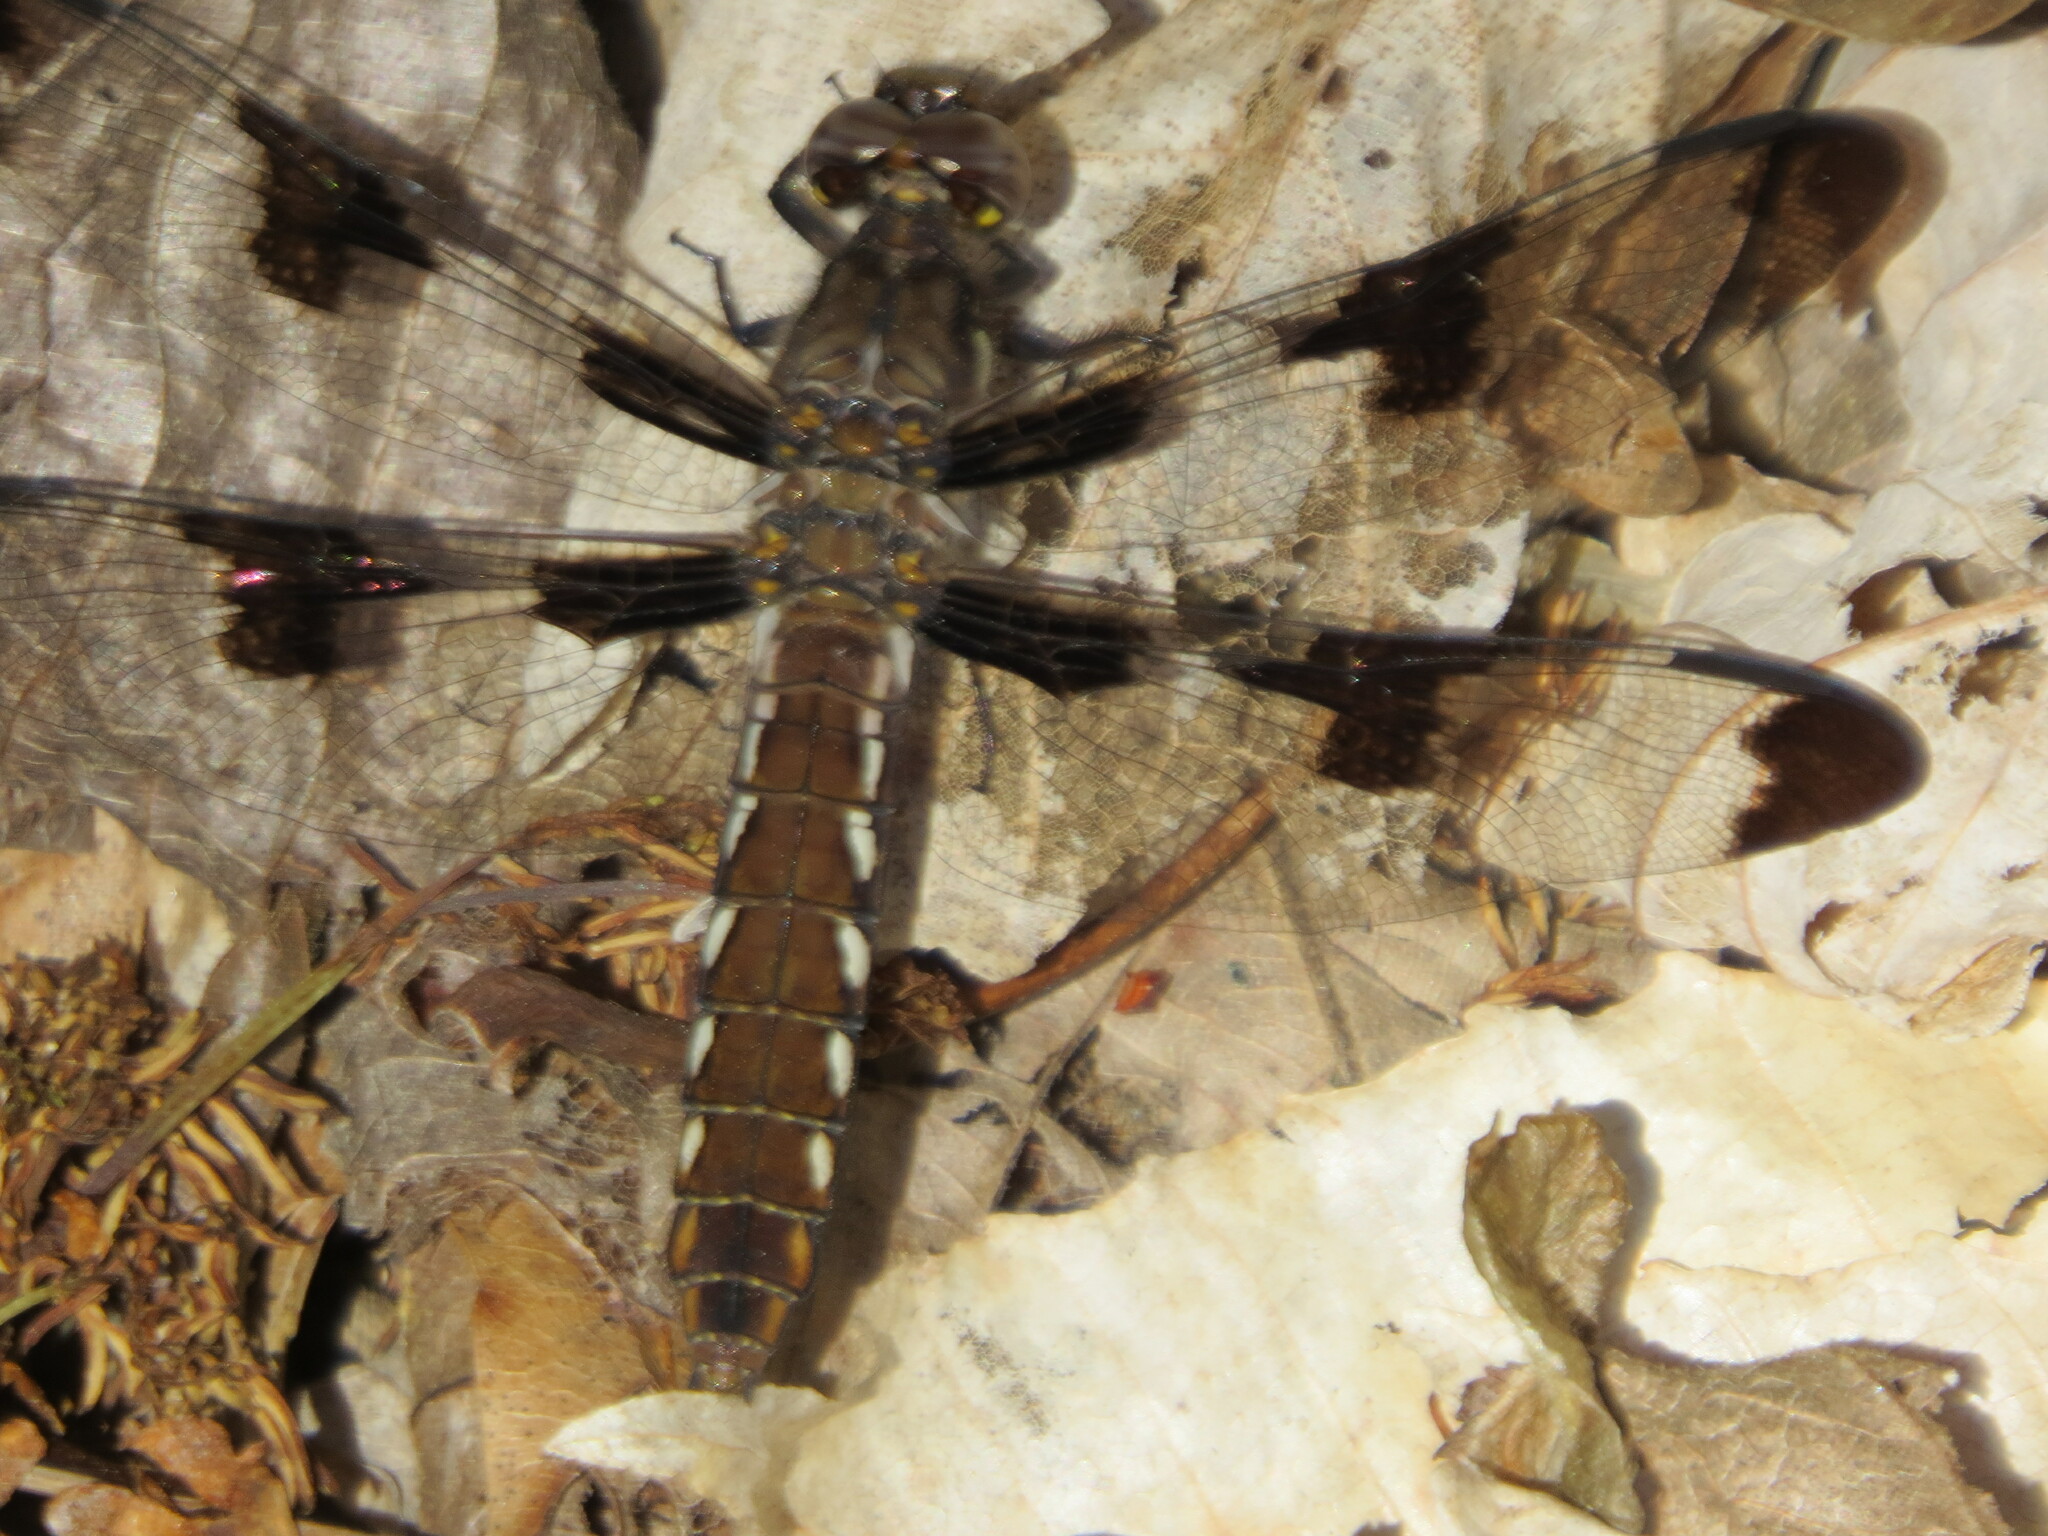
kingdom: Animalia
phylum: Arthropoda
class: Insecta
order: Odonata
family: Libellulidae
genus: Plathemis
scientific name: Plathemis lydia
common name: Common whitetail
